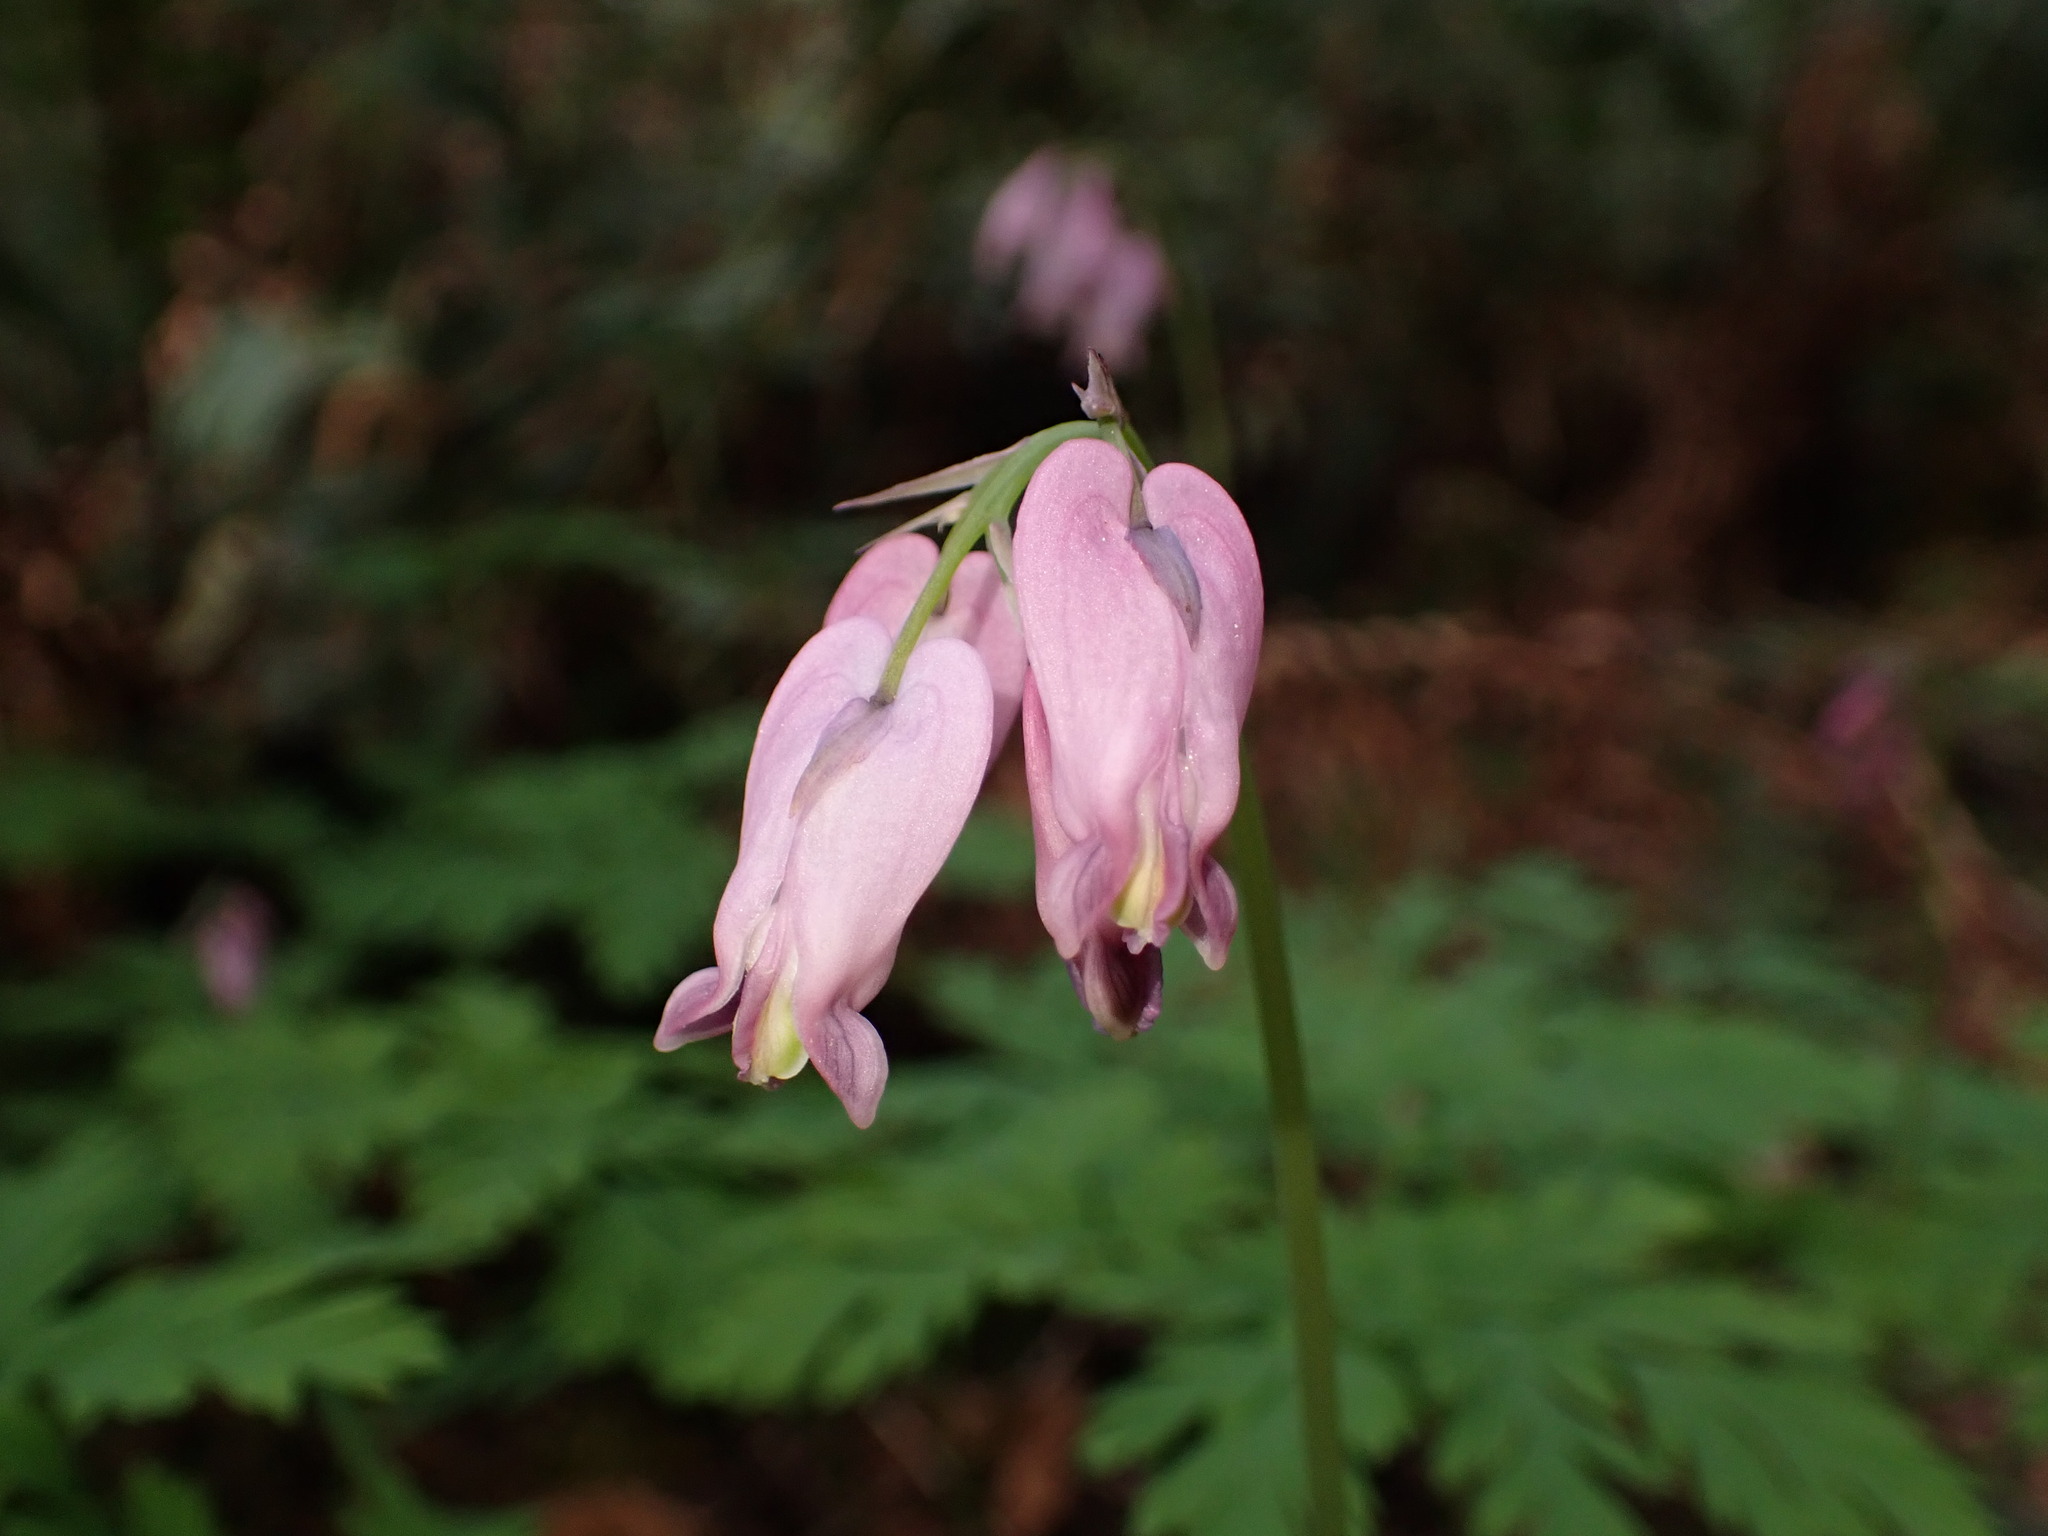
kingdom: Plantae
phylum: Tracheophyta
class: Magnoliopsida
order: Ranunculales
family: Papaveraceae
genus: Dicentra
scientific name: Dicentra formosa
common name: Bleeding-heart
